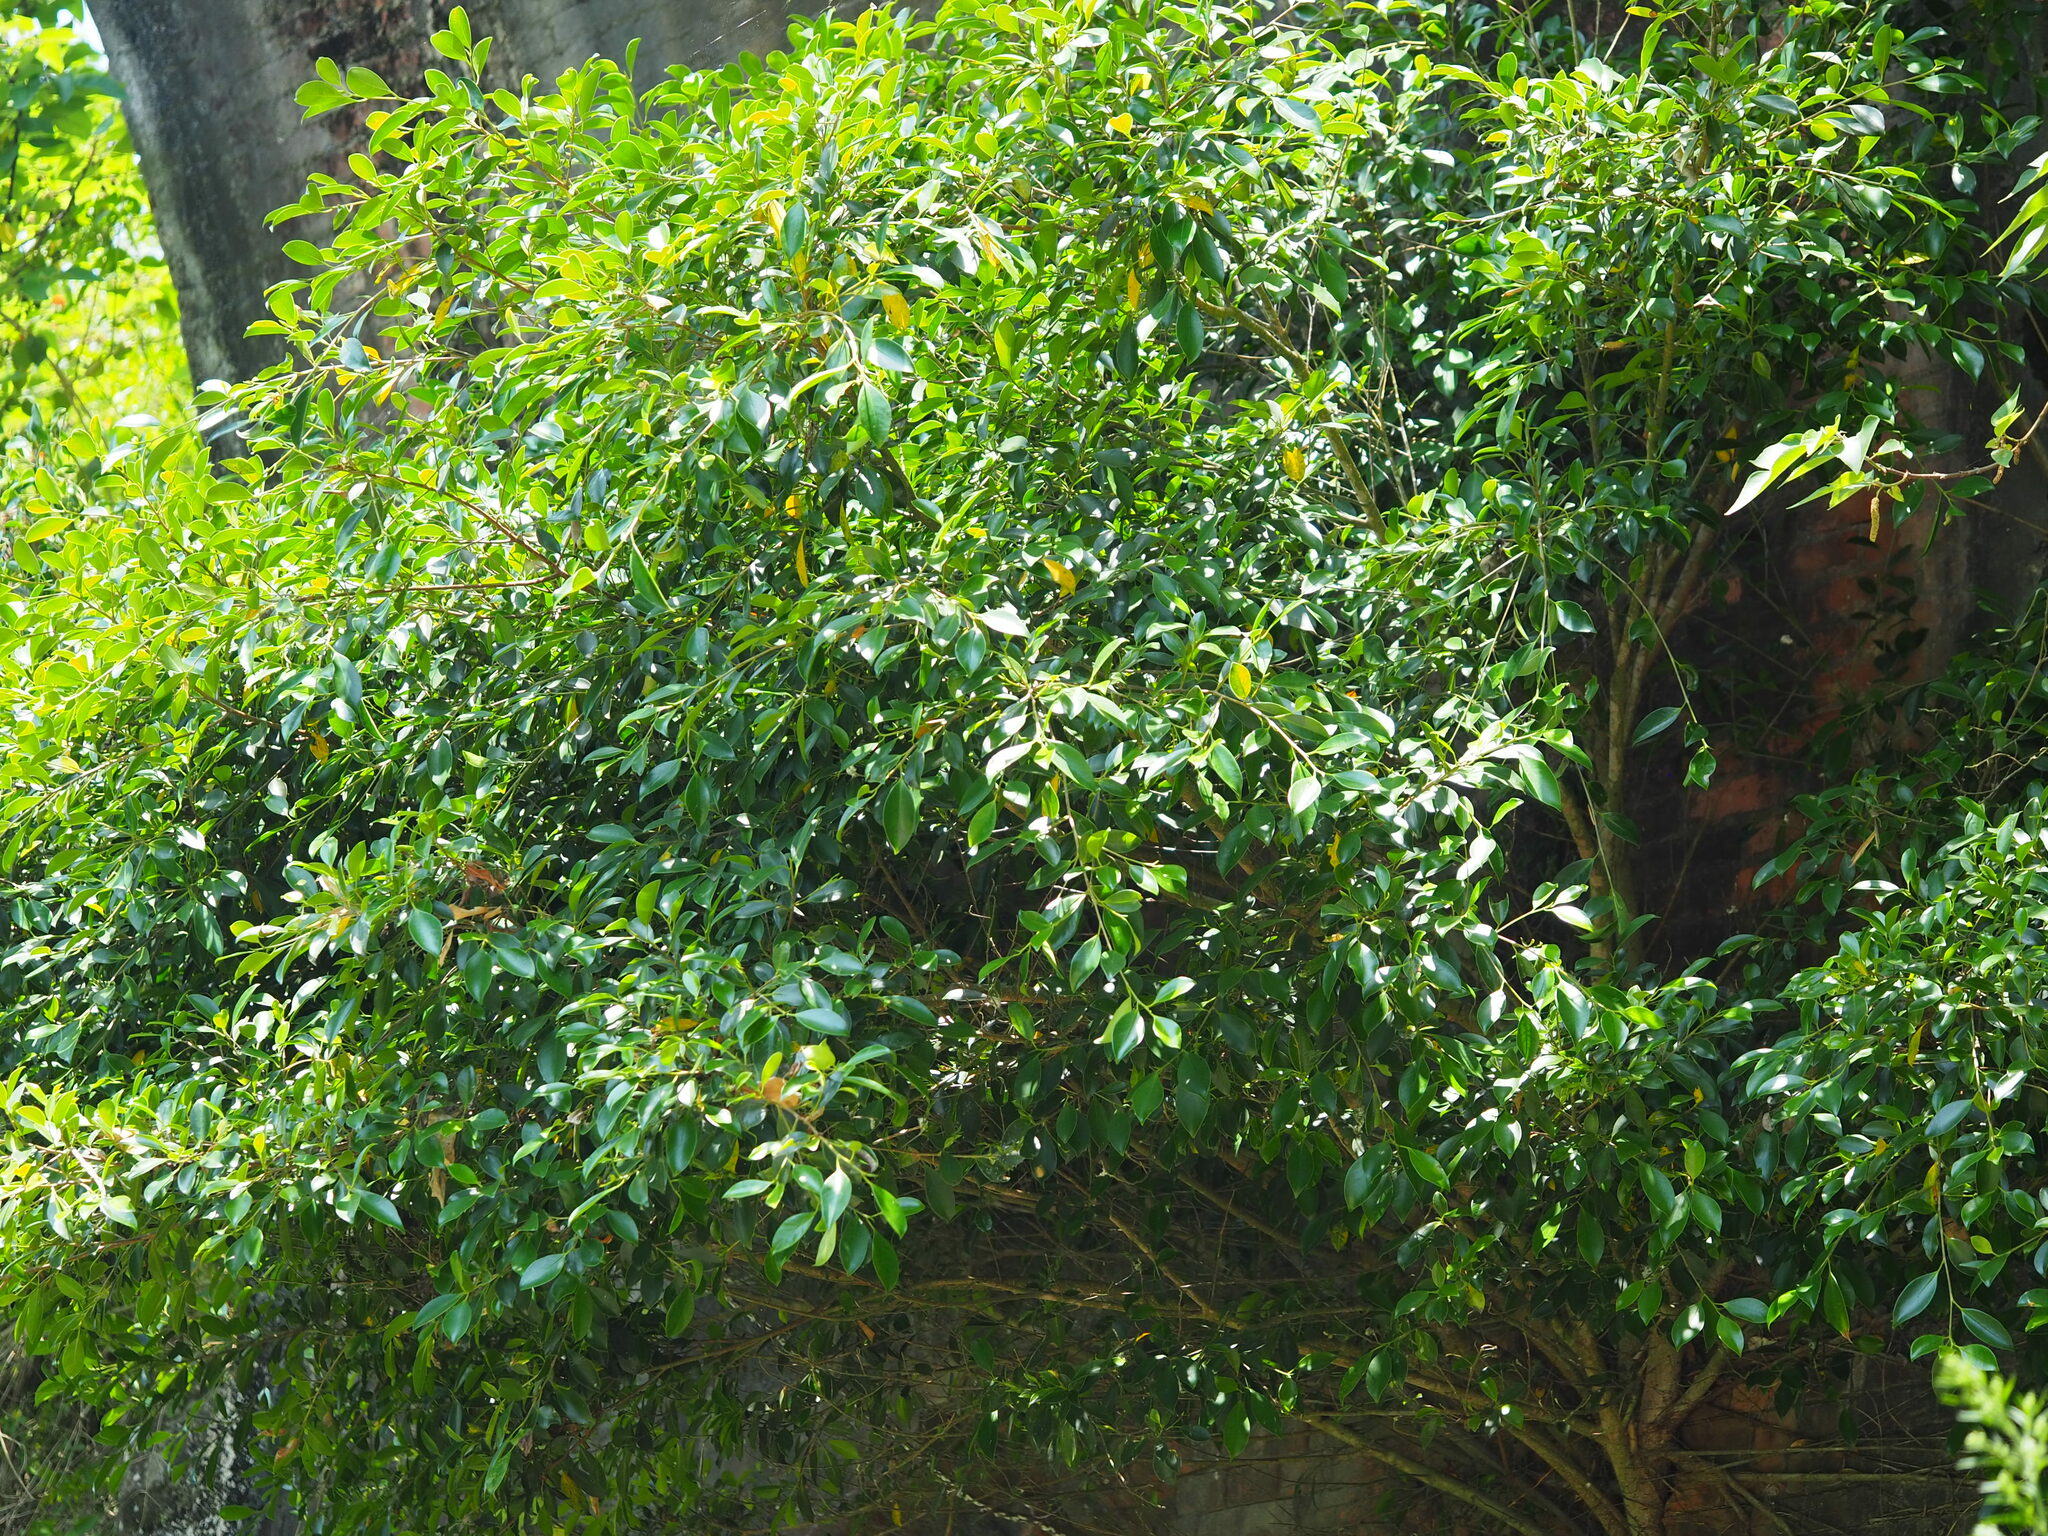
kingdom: Plantae
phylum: Tracheophyta
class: Magnoliopsida
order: Rosales
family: Moraceae
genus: Ficus
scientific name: Ficus microcarpa
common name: Chinese banyan
